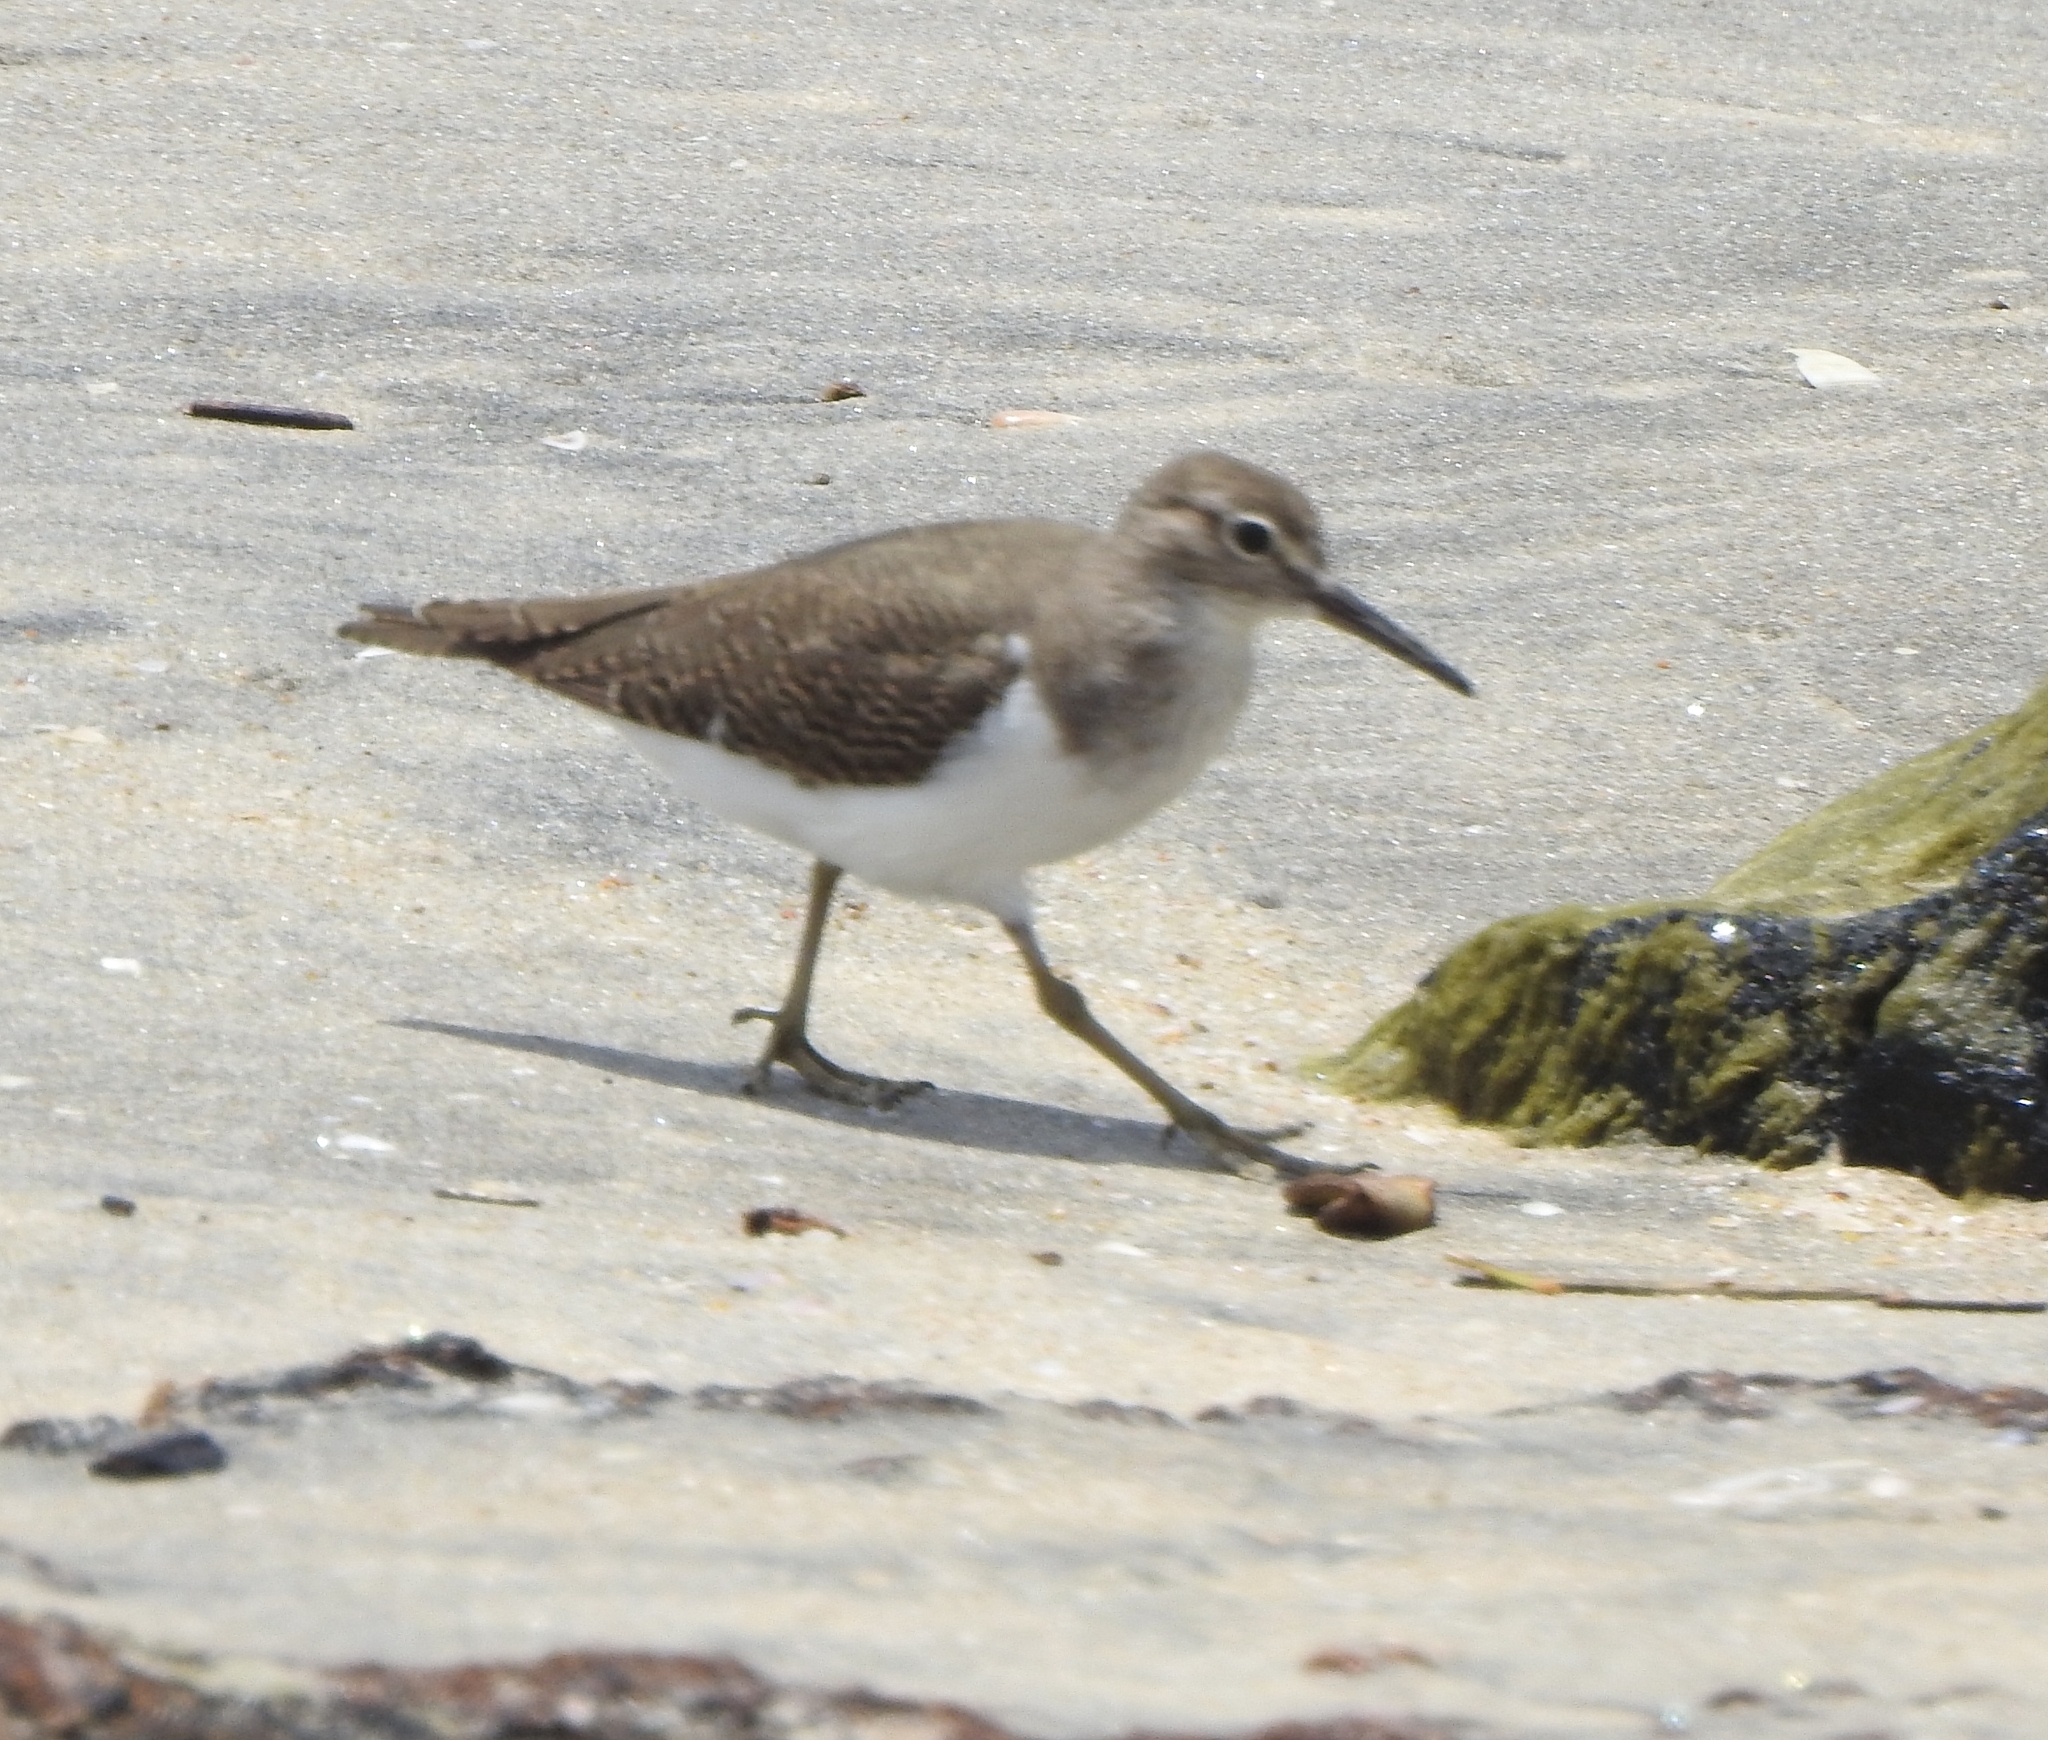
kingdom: Animalia
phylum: Chordata
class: Aves
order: Charadriiformes
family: Scolopacidae
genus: Actitis
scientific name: Actitis hypoleucos
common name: Common sandpiper
